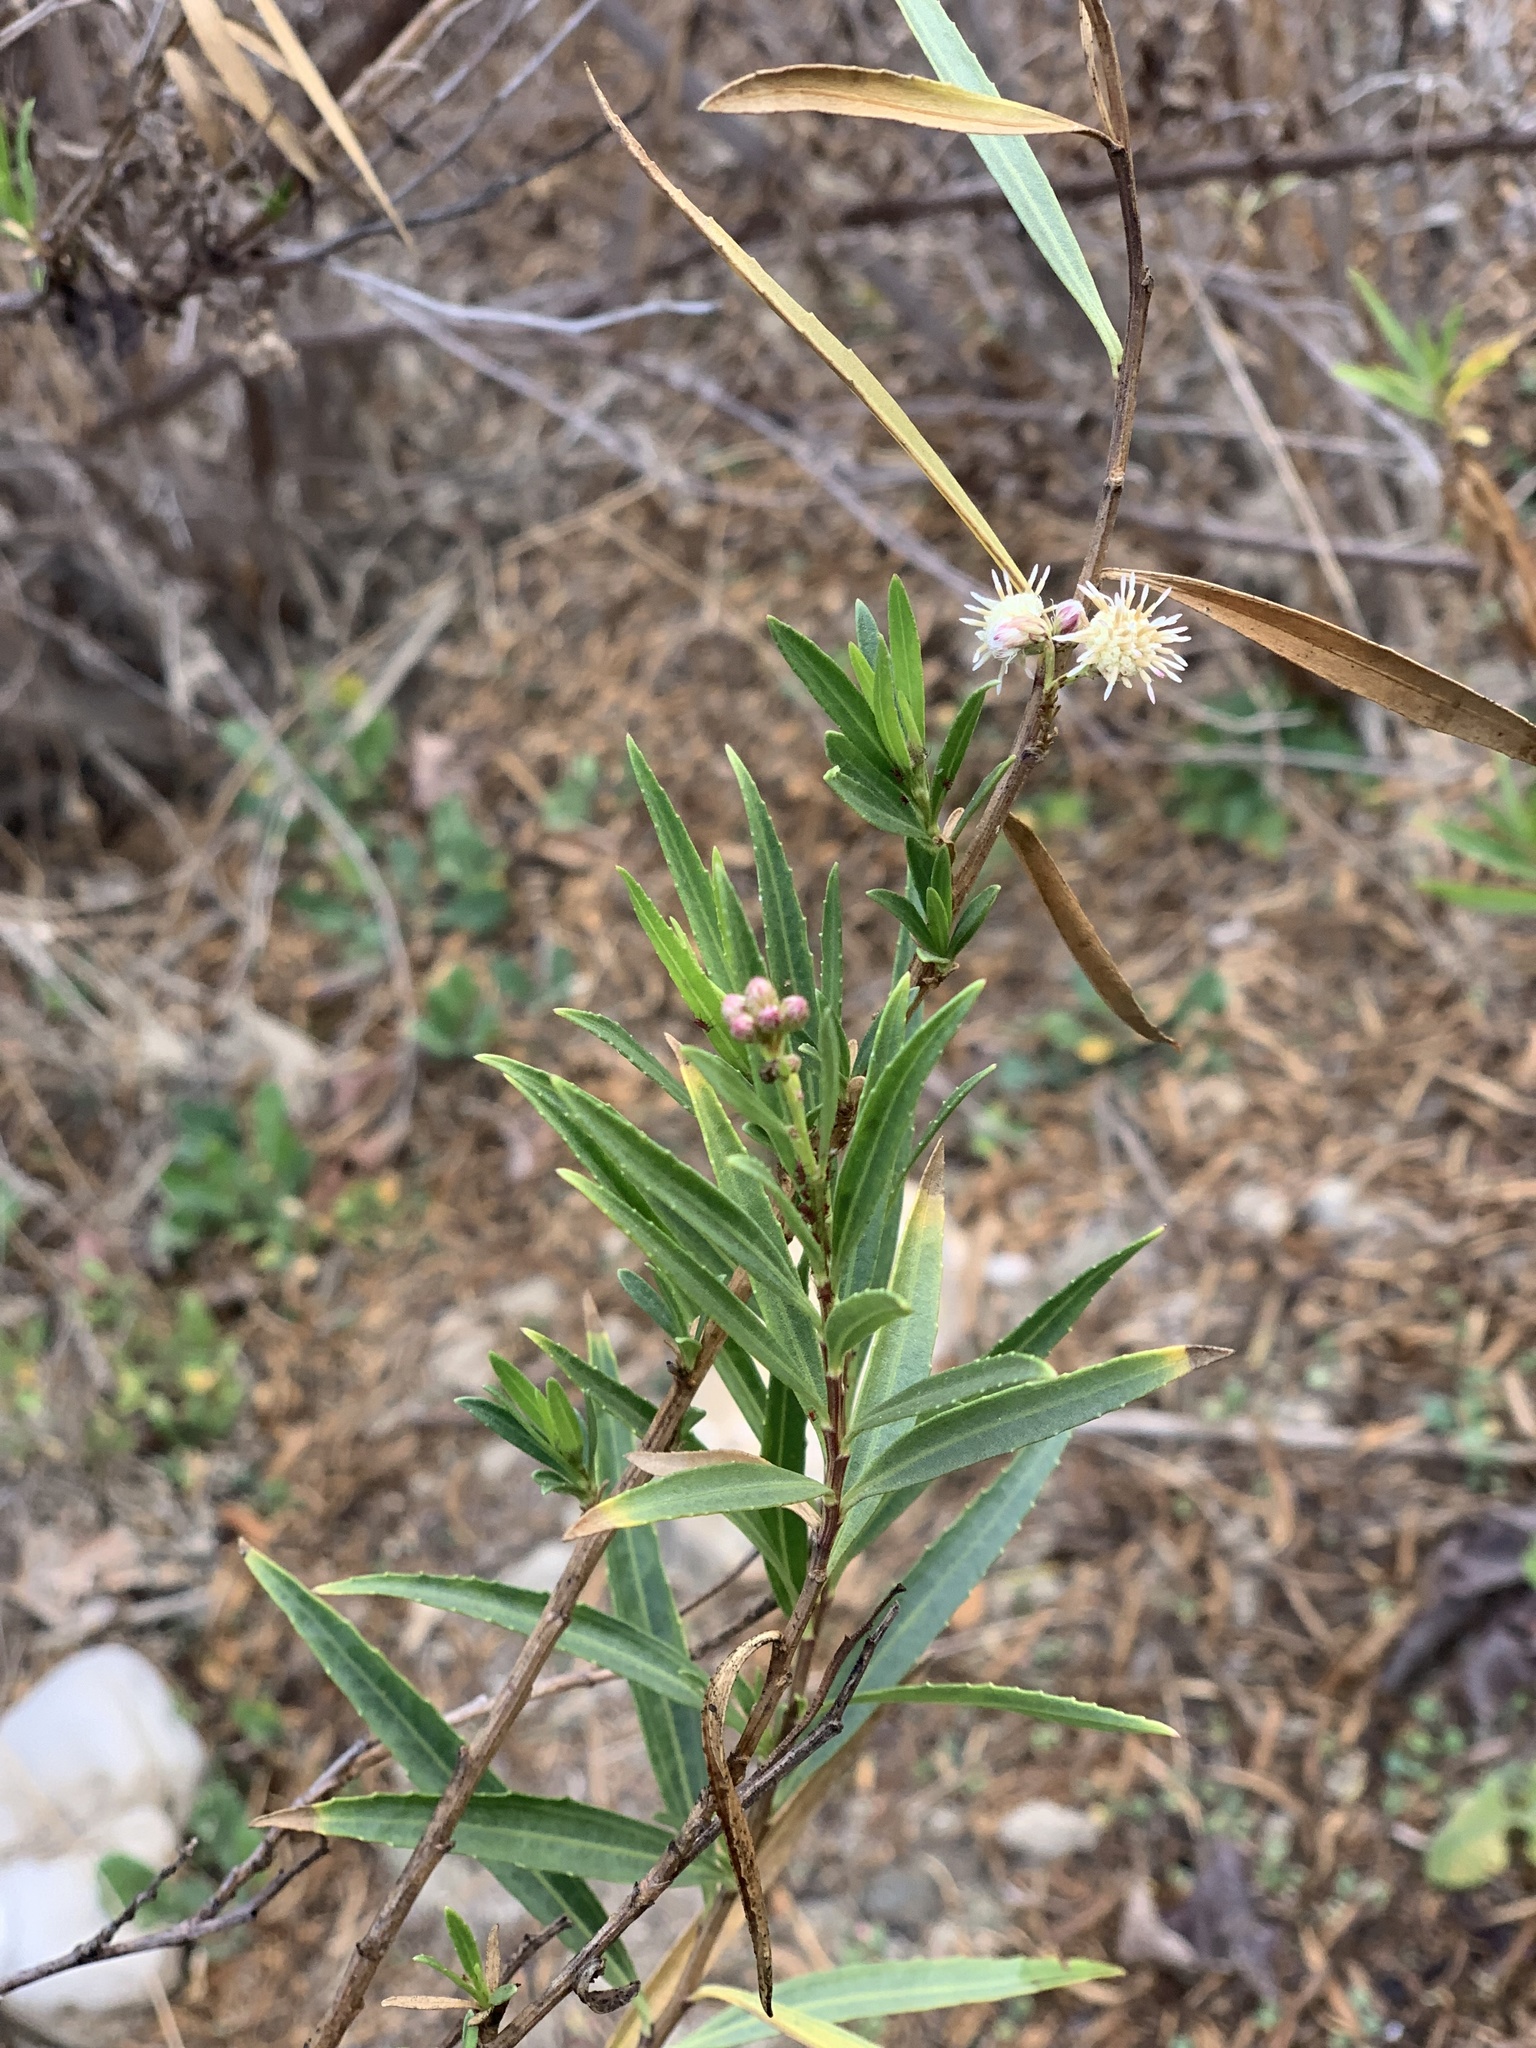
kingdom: Plantae
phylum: Tracheophyta
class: Magnoliopsida
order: Asterales
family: Asteraceae
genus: Baccharis
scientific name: Baccharis salicifolia
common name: Sticky baccharis
